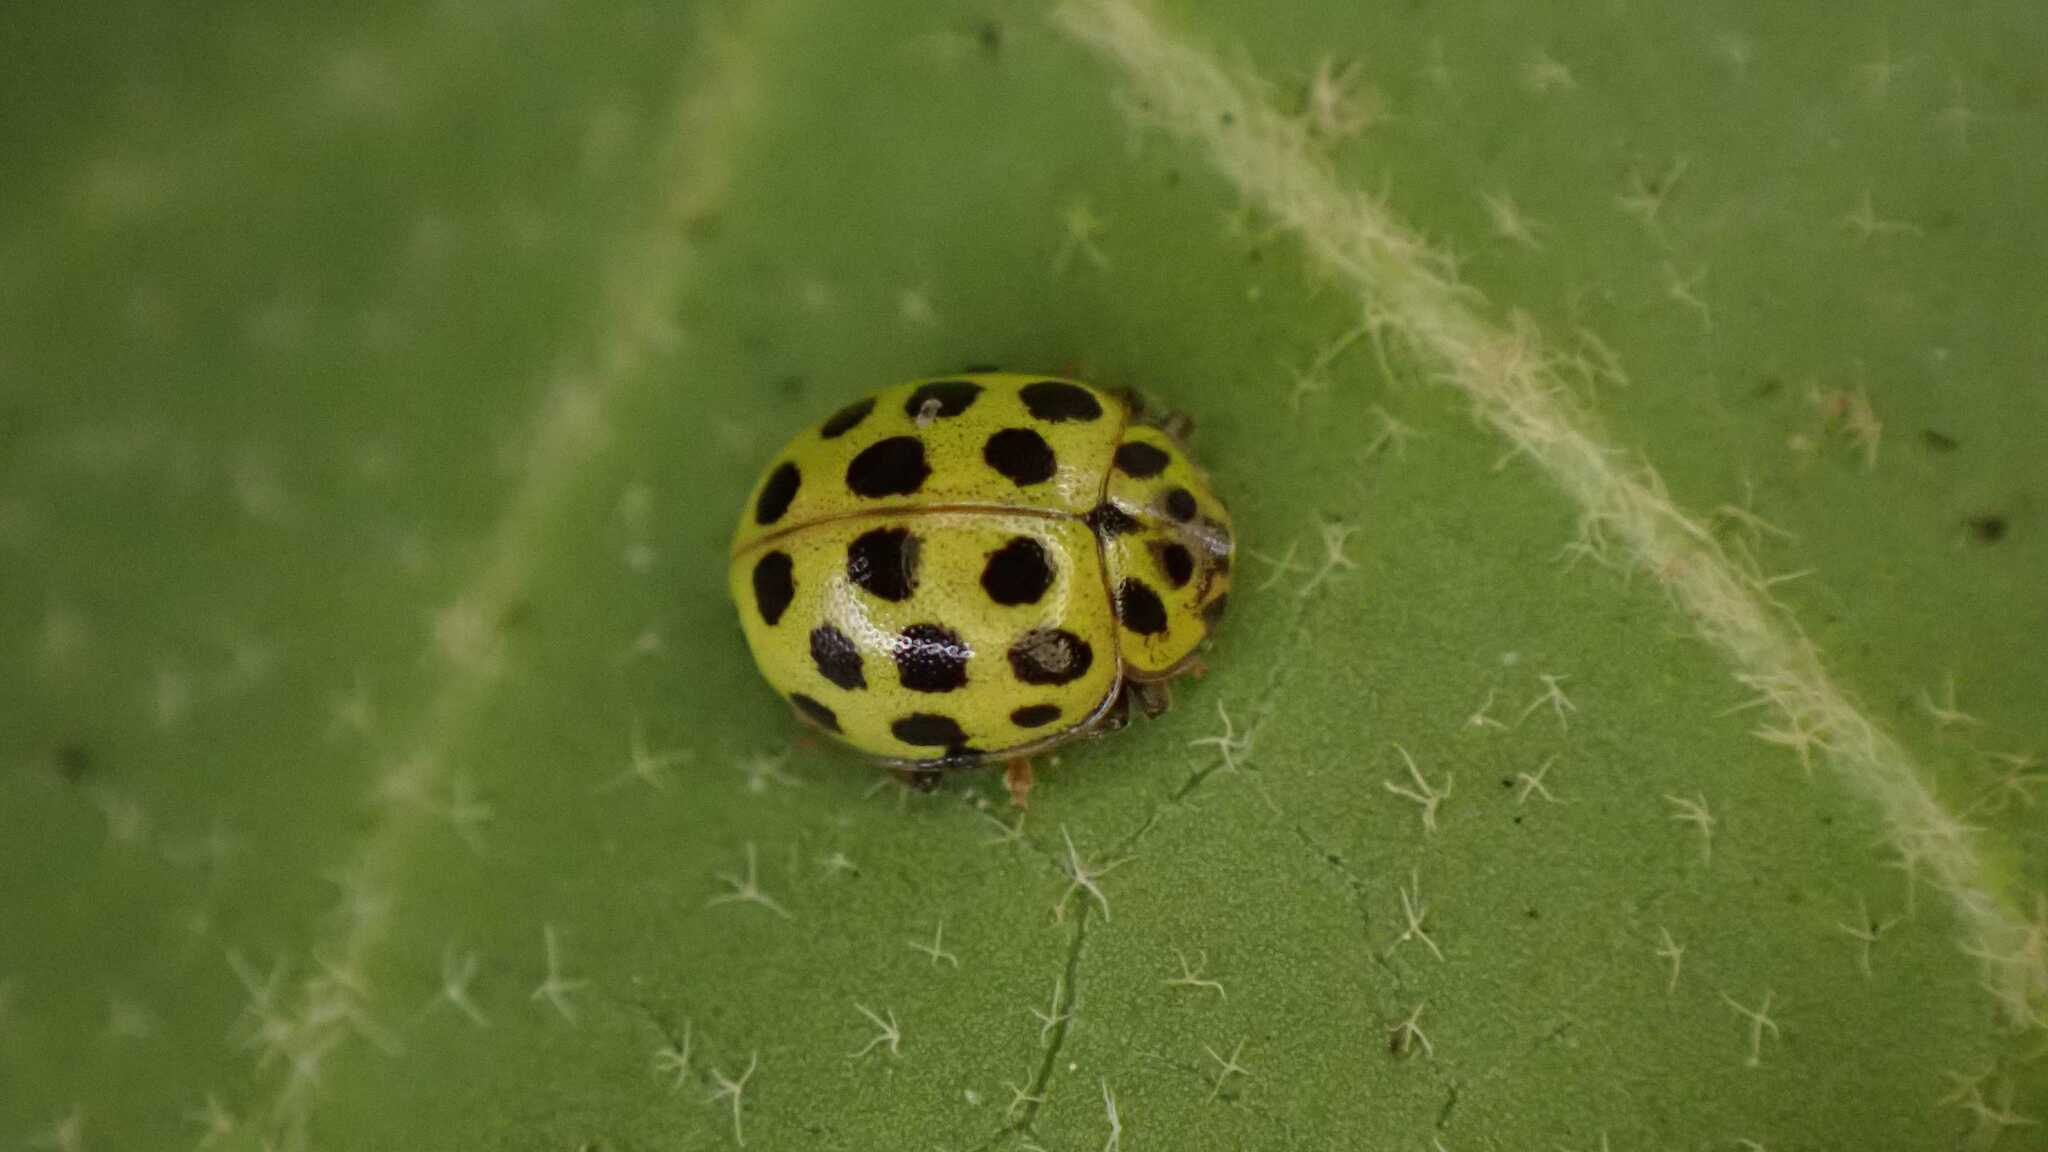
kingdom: Animalia
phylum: Arthropoda
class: Insecta
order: Coleoptera
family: Coccinellidae
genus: Psyllobora
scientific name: Psyllobora vigintiduopunctata
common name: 22-spot ladybird
